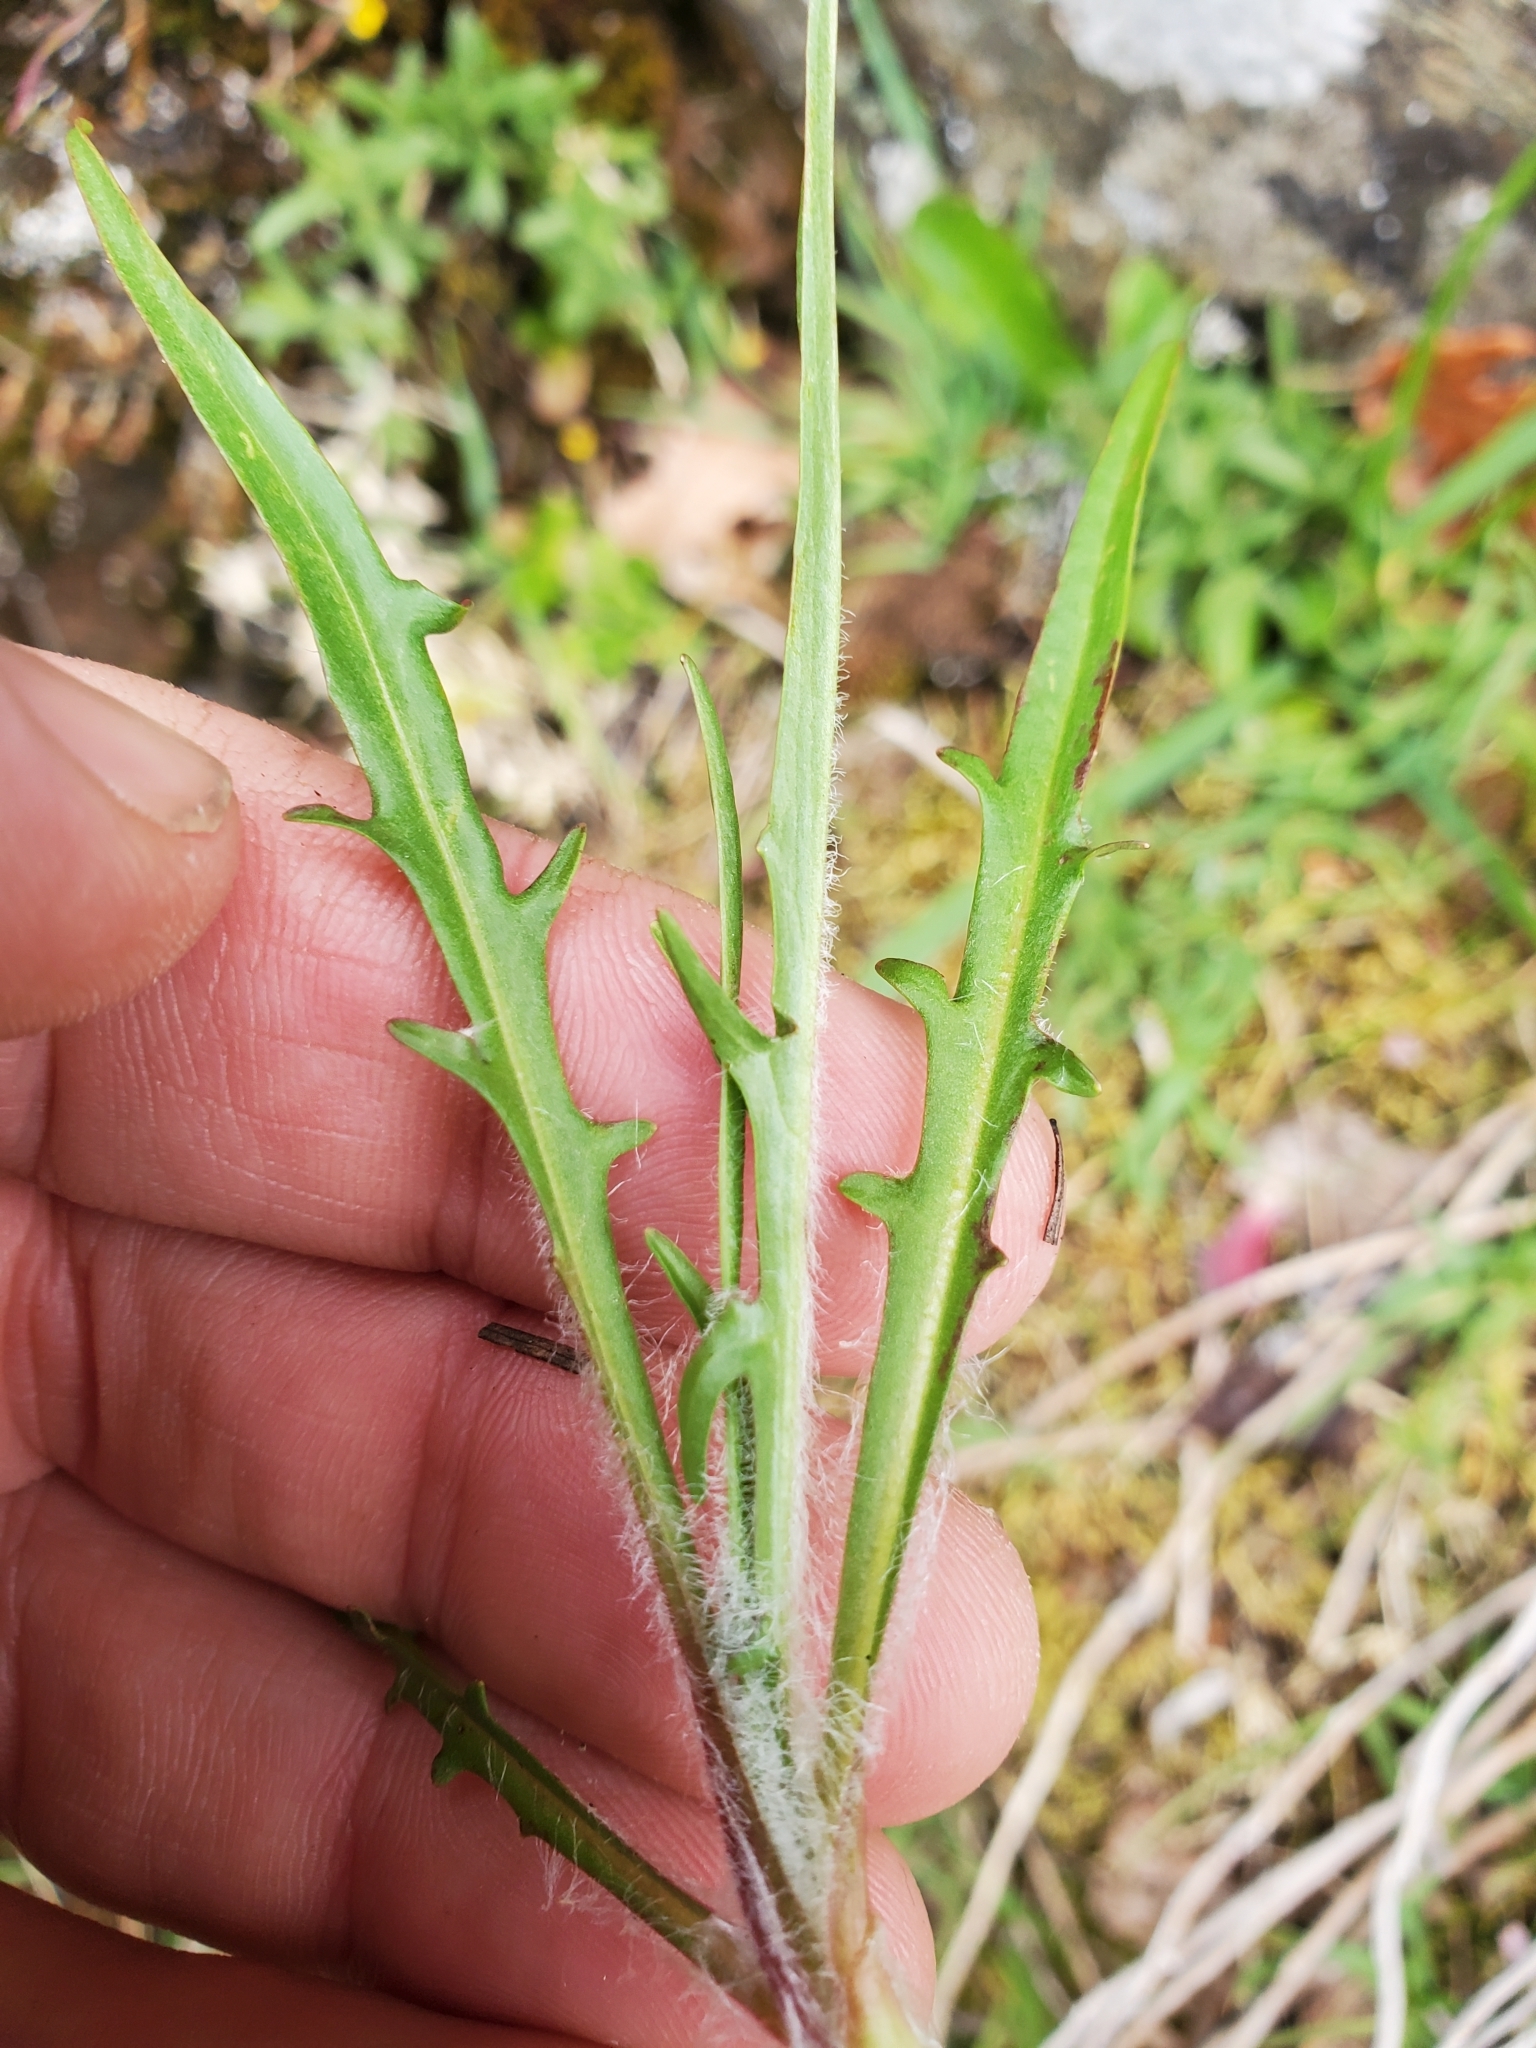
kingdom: Plantae
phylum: Tracheophyta
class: Magnoliopsida
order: Asterales
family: Asteraceae
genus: Agoseris
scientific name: Agoseris grandiflora
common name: Grassland agoseris
